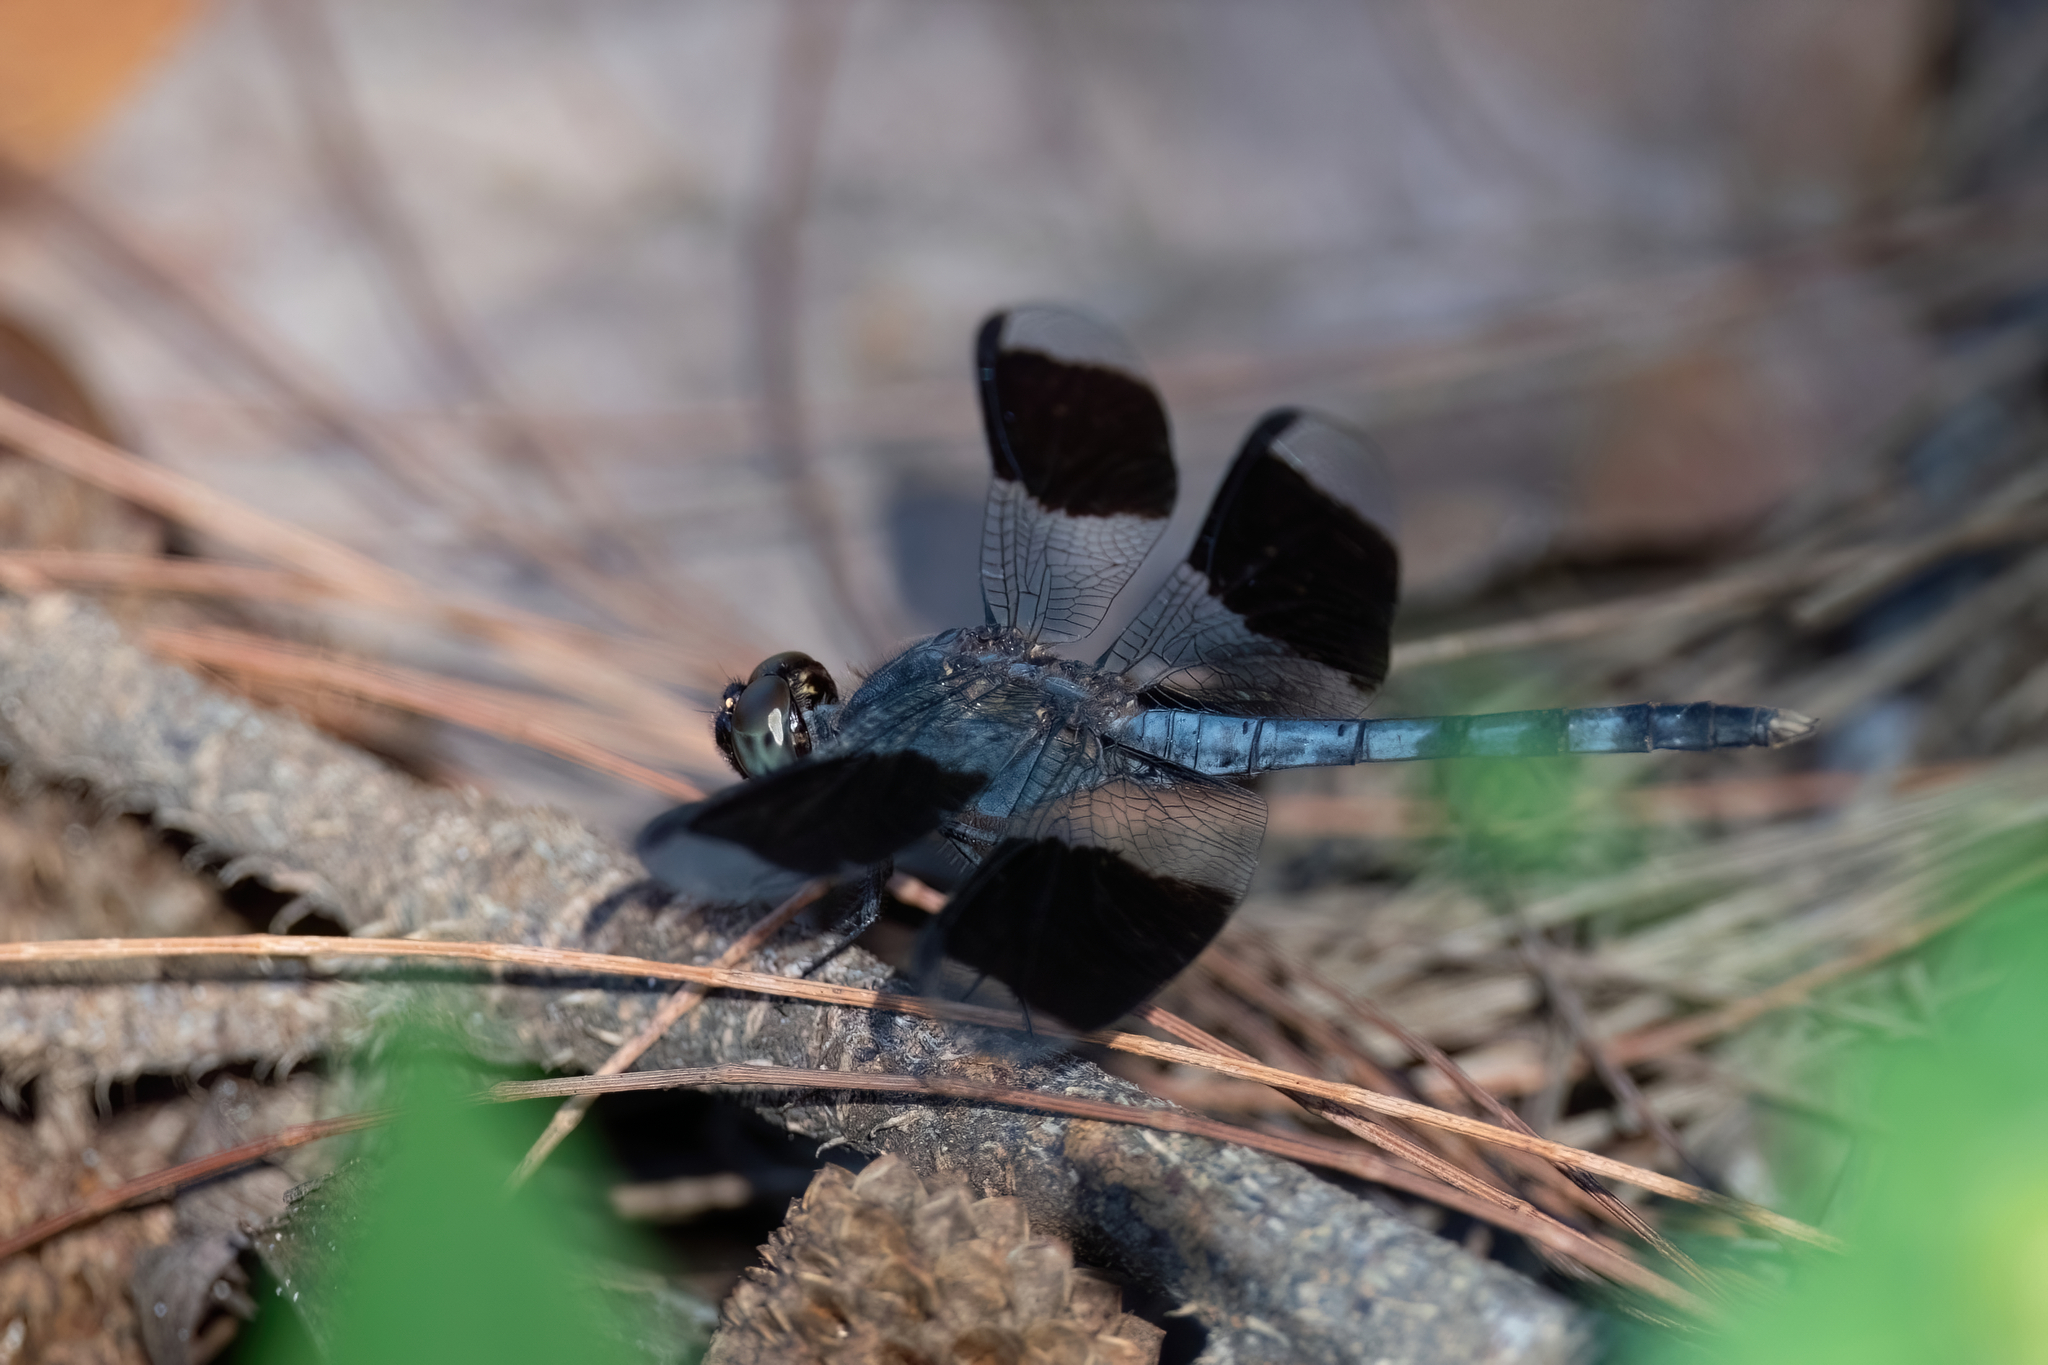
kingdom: Animalia
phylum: Arthropoda
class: Insecta
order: Odonata
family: Libellulidae
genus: Erythrodiplax
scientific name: Erythrodiplax umbrata
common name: Band-winged dragonlet
